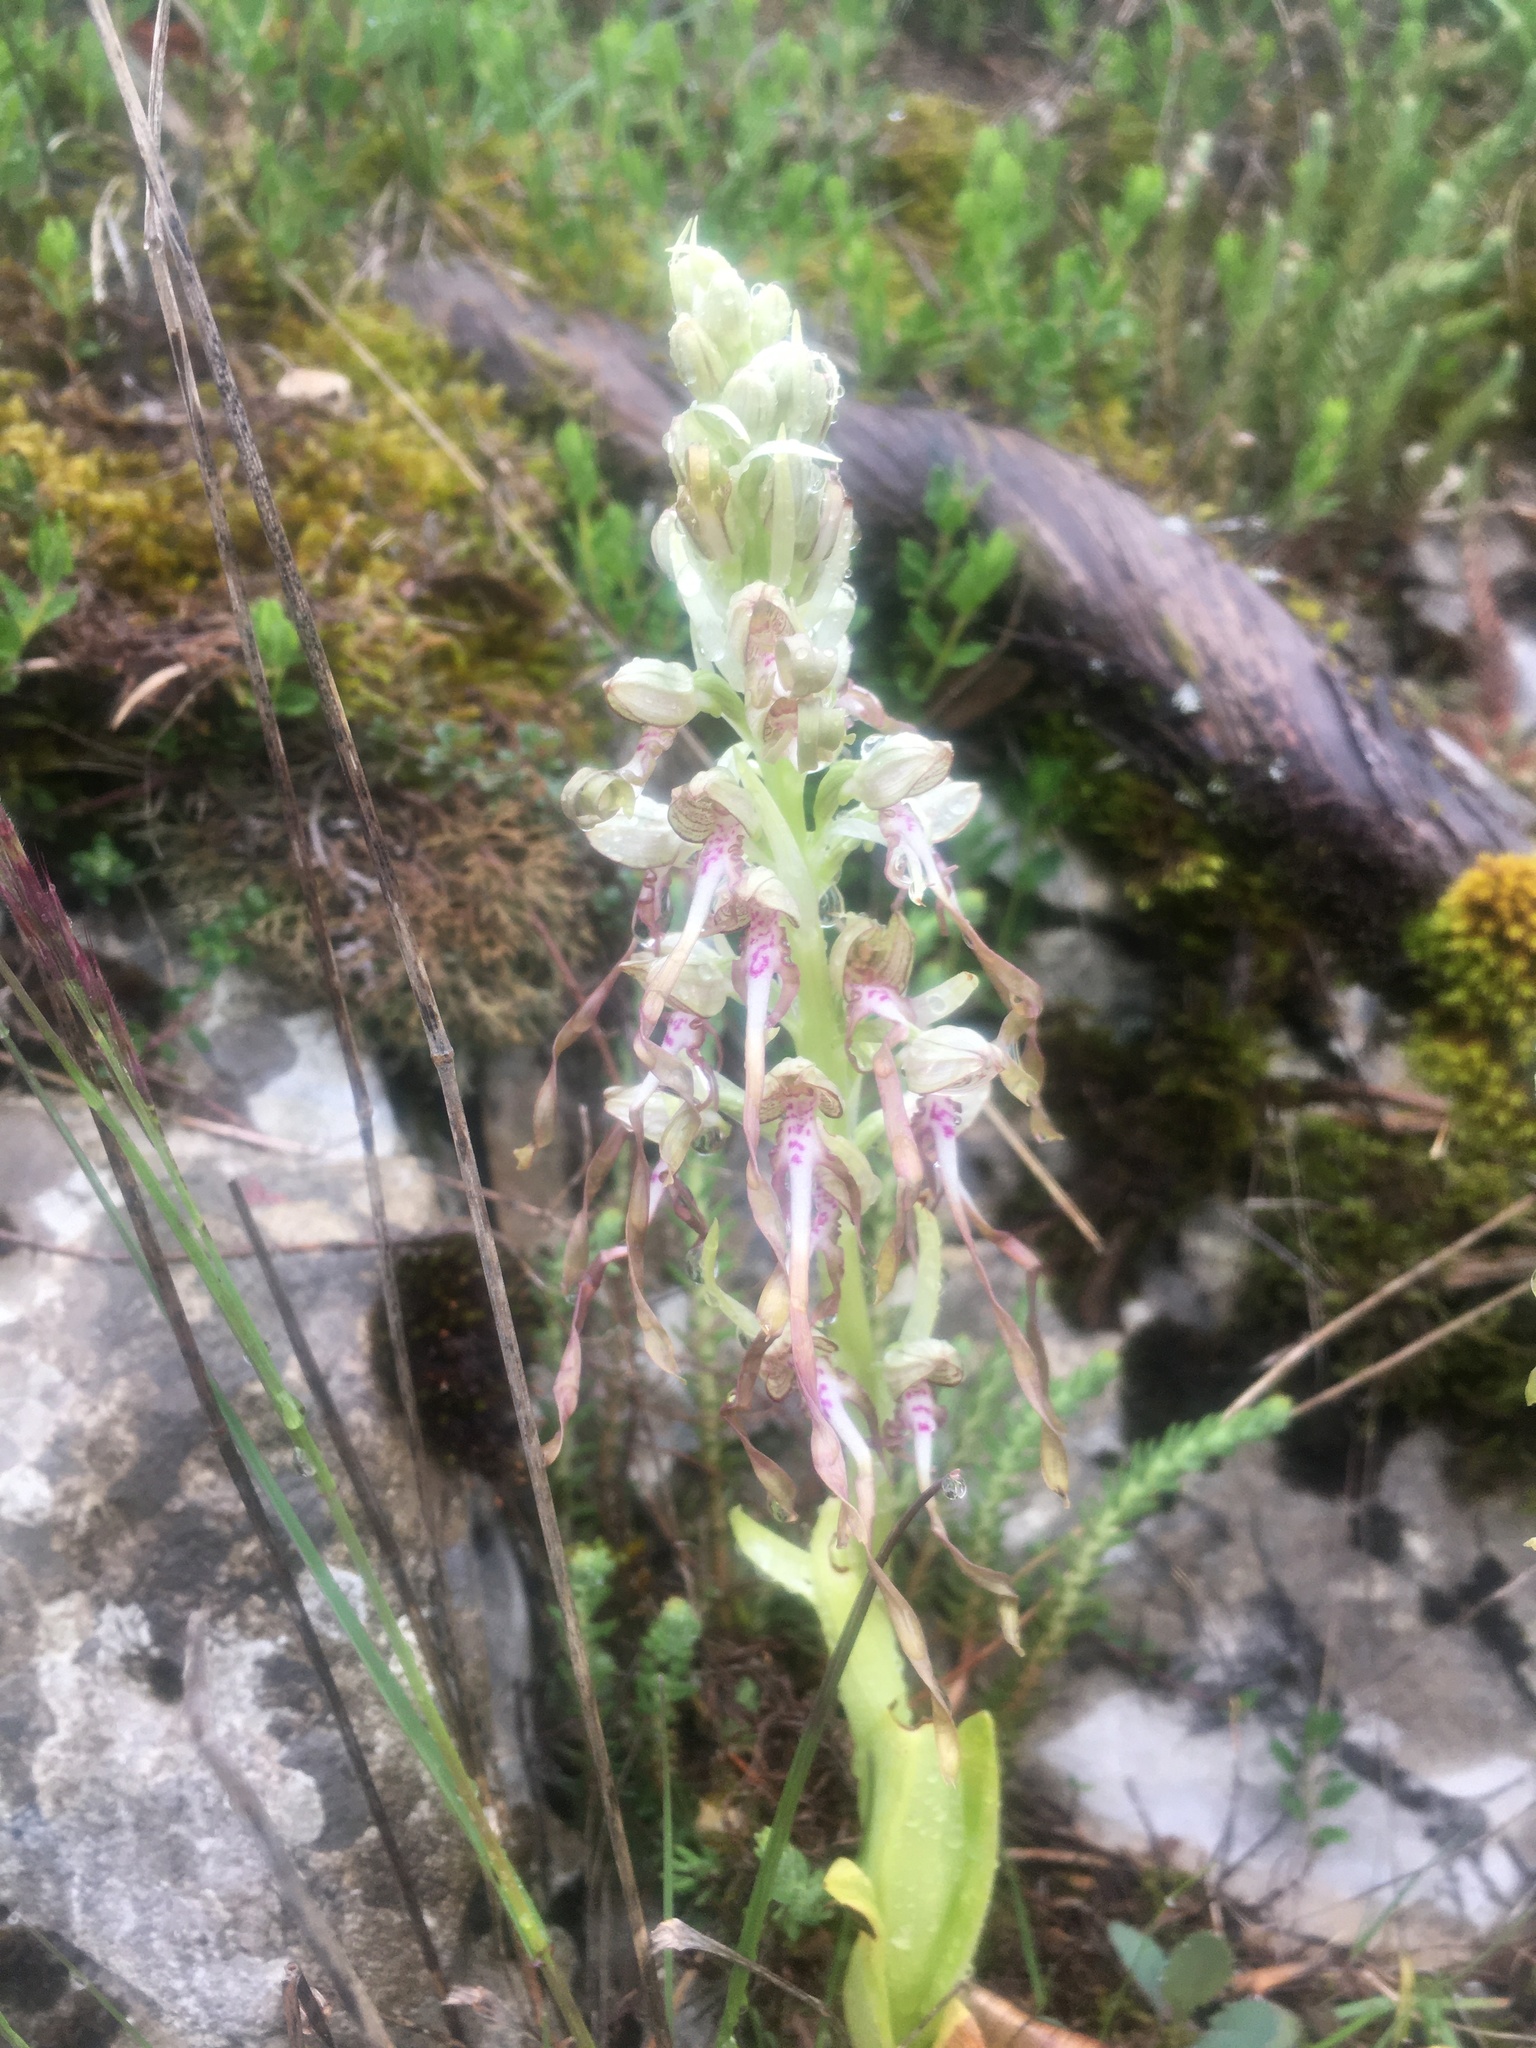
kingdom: Plantae
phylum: Tracheophyta
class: Liliopsida
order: Asparagales
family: Orchidaceae
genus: Himantoglossum
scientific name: Himantoglossum hircinum
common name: Lizard orchid
